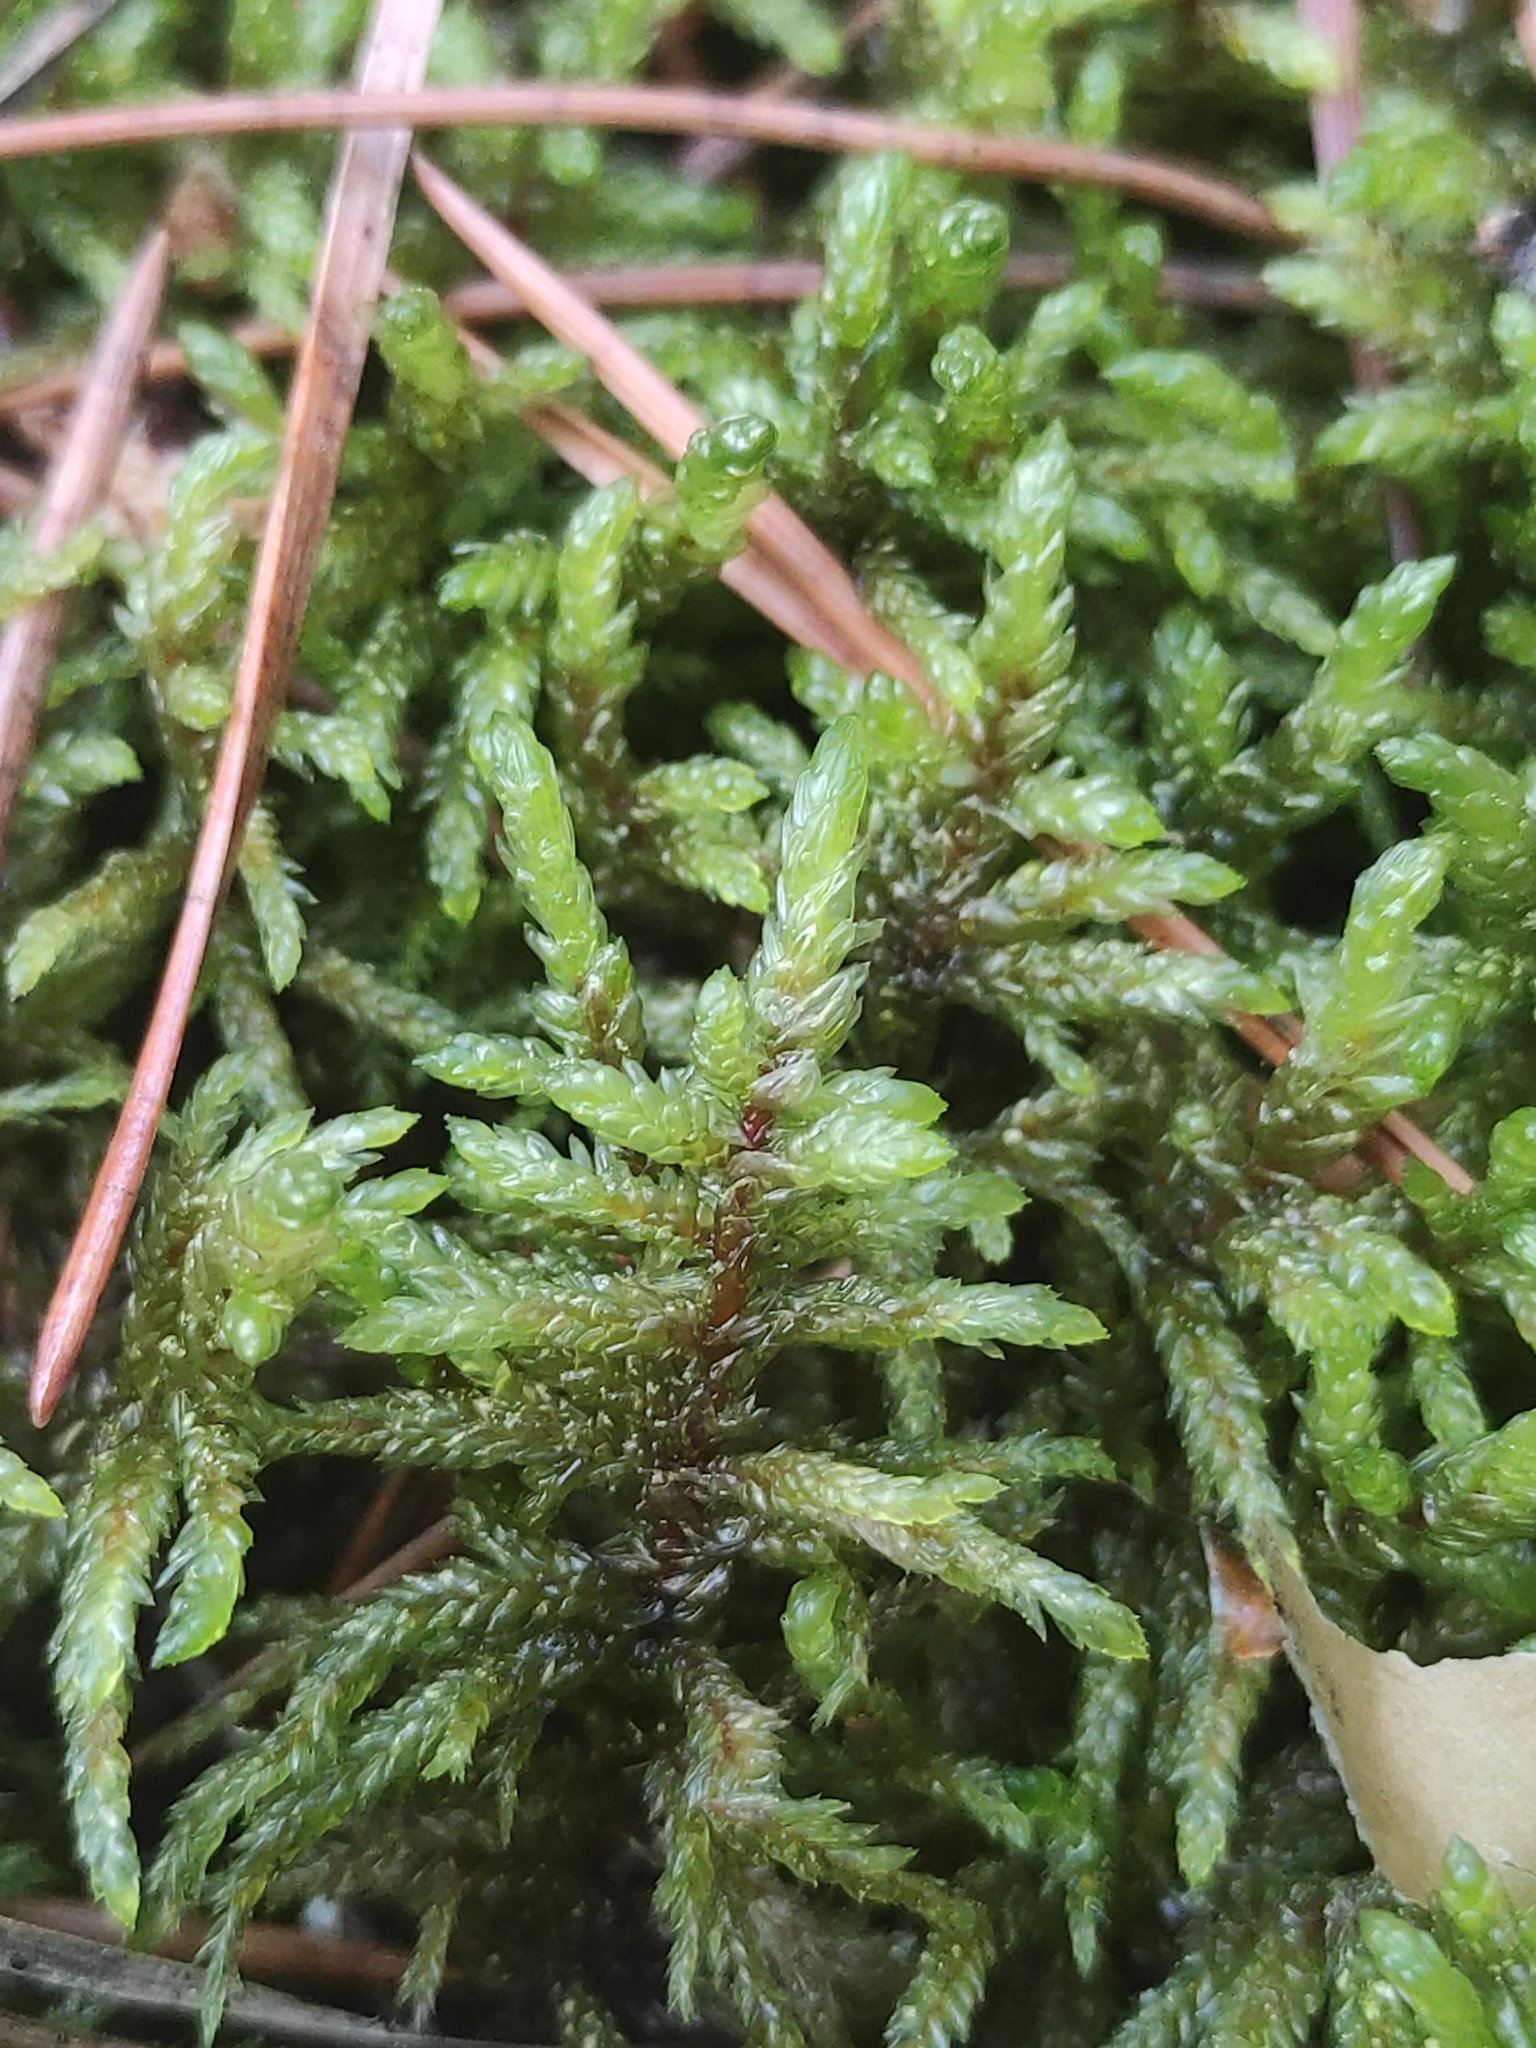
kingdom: Plantae
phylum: Bryophyta
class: Bryopsida
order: Hypnales
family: Hylocomiaceae
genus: Pleurozium
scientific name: Pleurozium schreberi
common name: Red-stemmed feather moss
